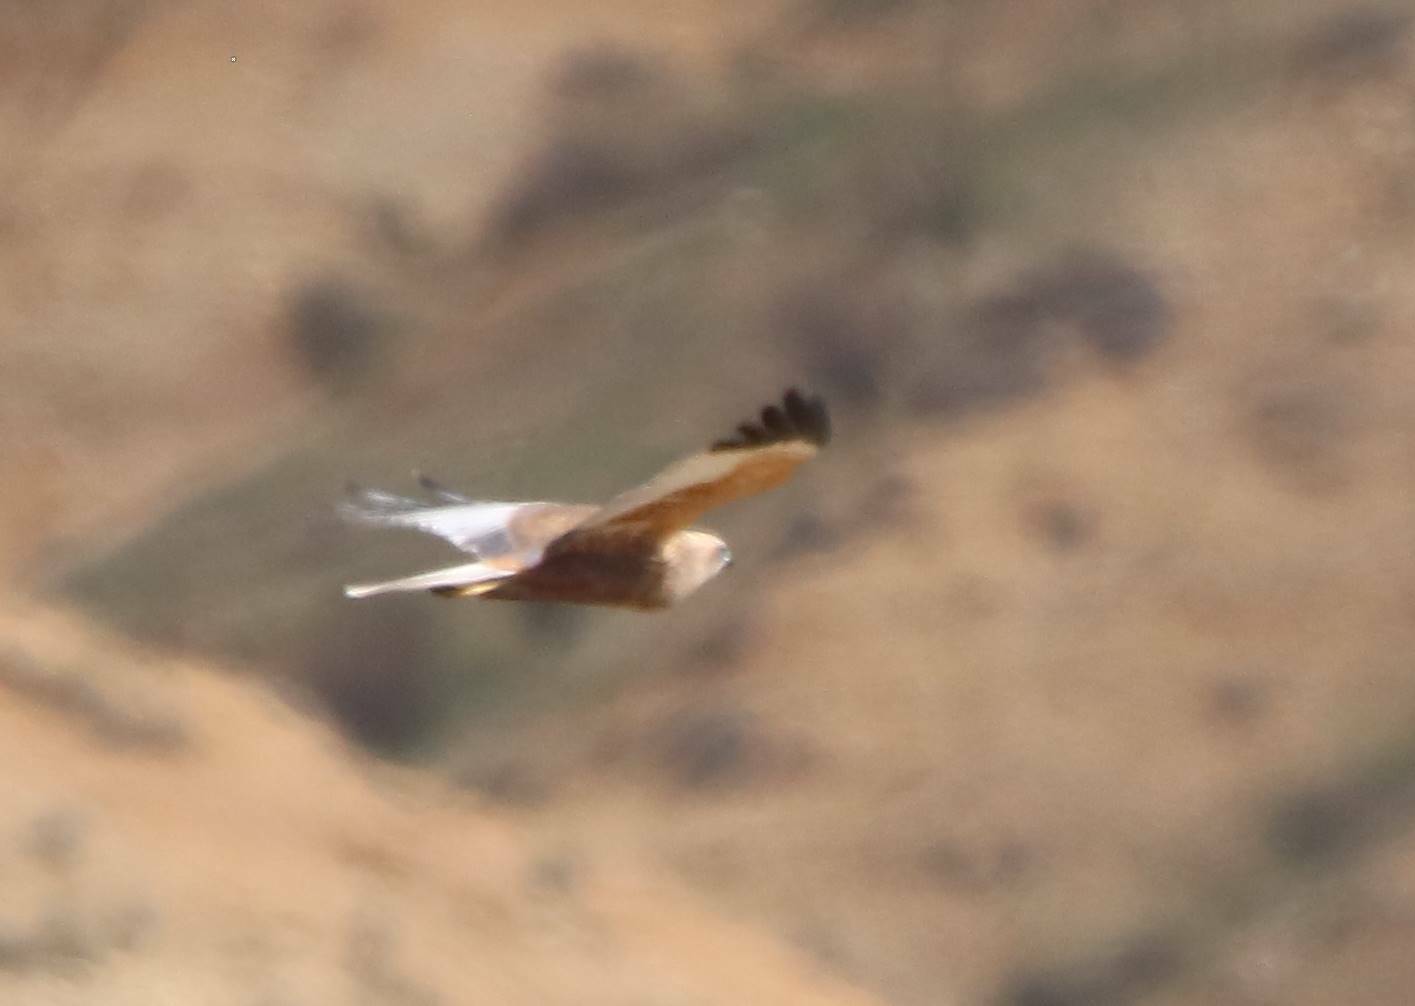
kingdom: Animalia
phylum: Chordata
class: Aves
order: Accipitriformes
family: Accipitridae
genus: Circus
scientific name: Circus aeruginosus
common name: Western marsh harrier
